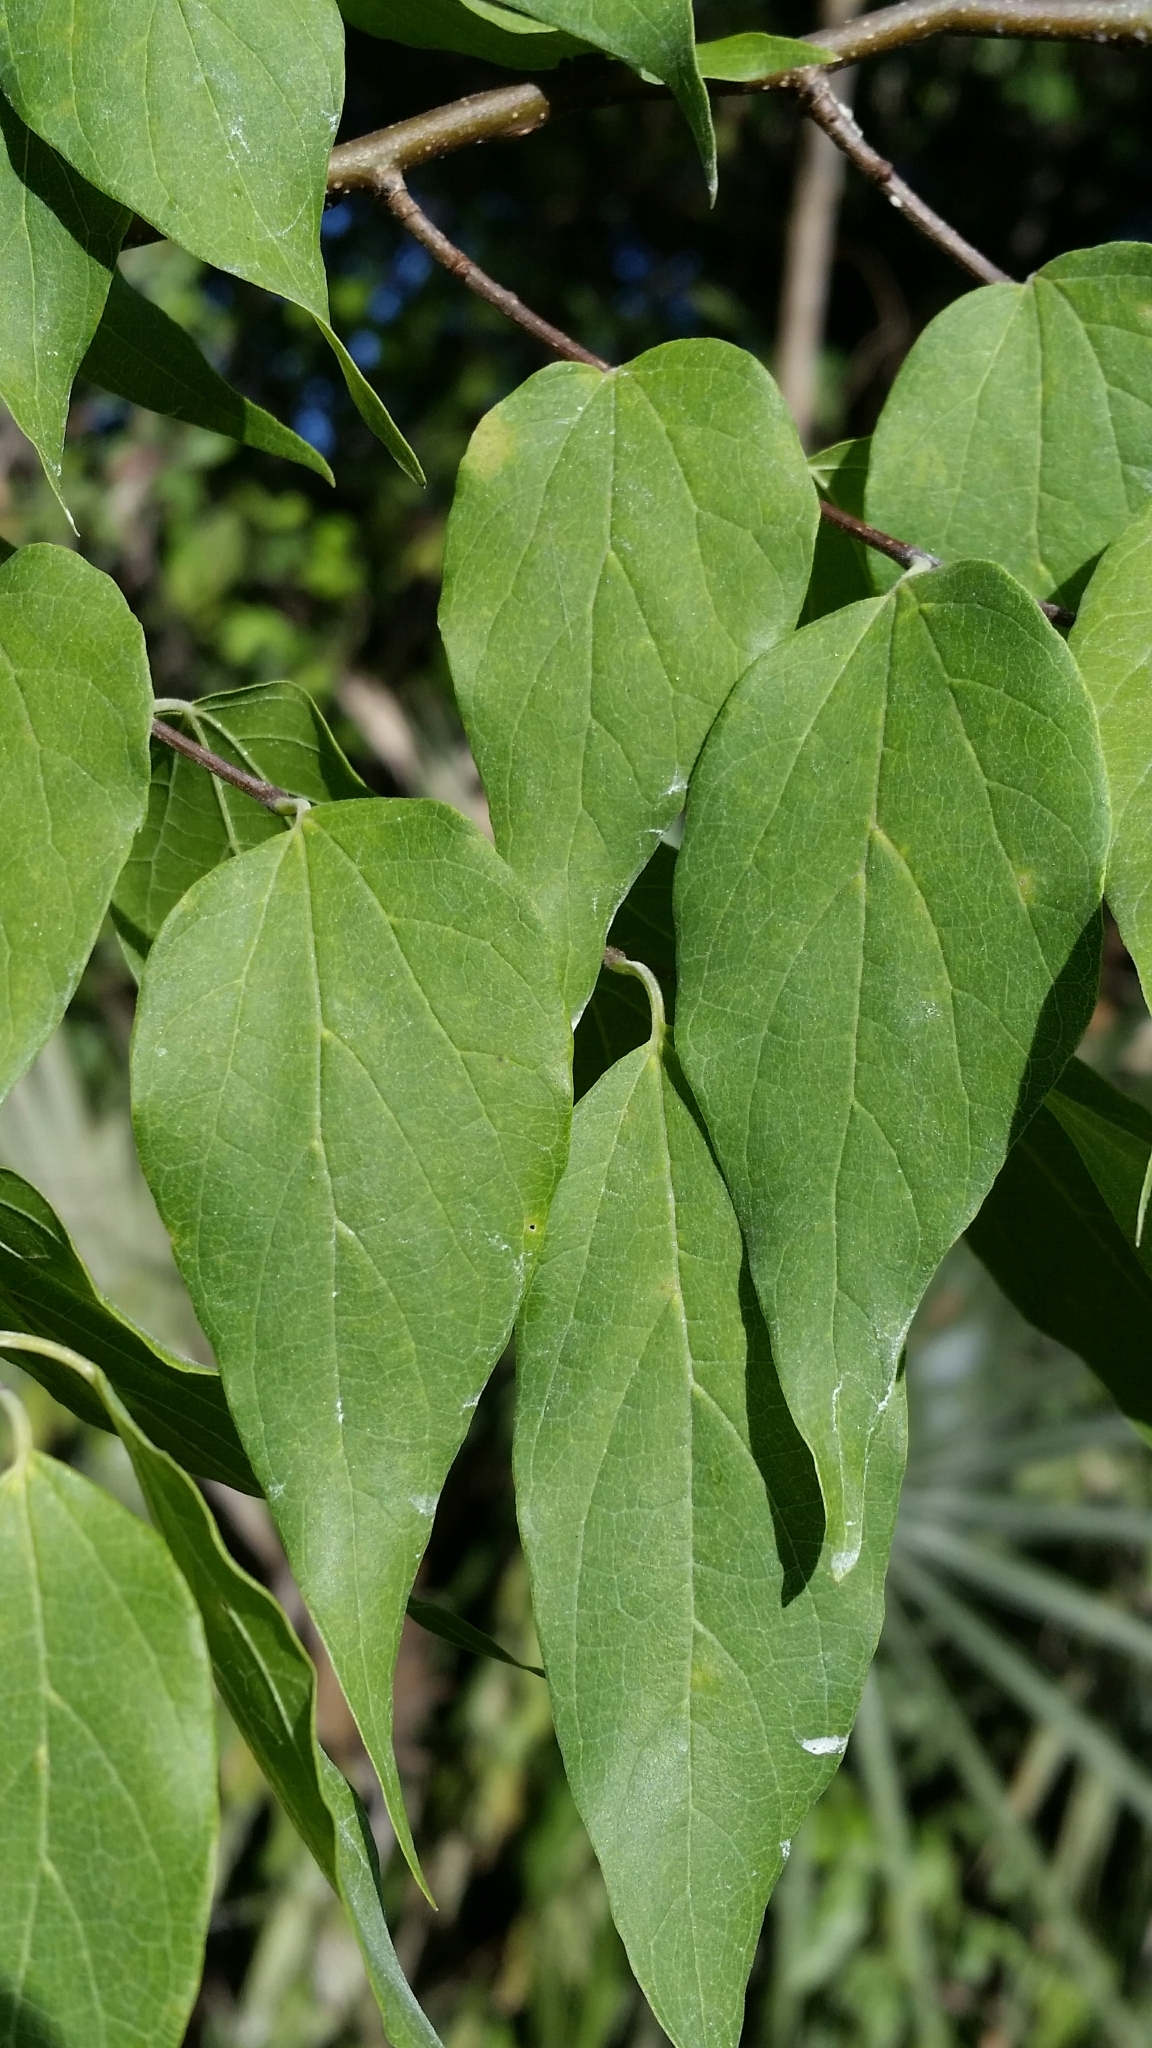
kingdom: Plantae
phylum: Tracheophyta
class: Magnoliopsida
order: Rosales
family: Cannabaceae
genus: Celtis
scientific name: Celtis laevigata
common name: Sugarberry
